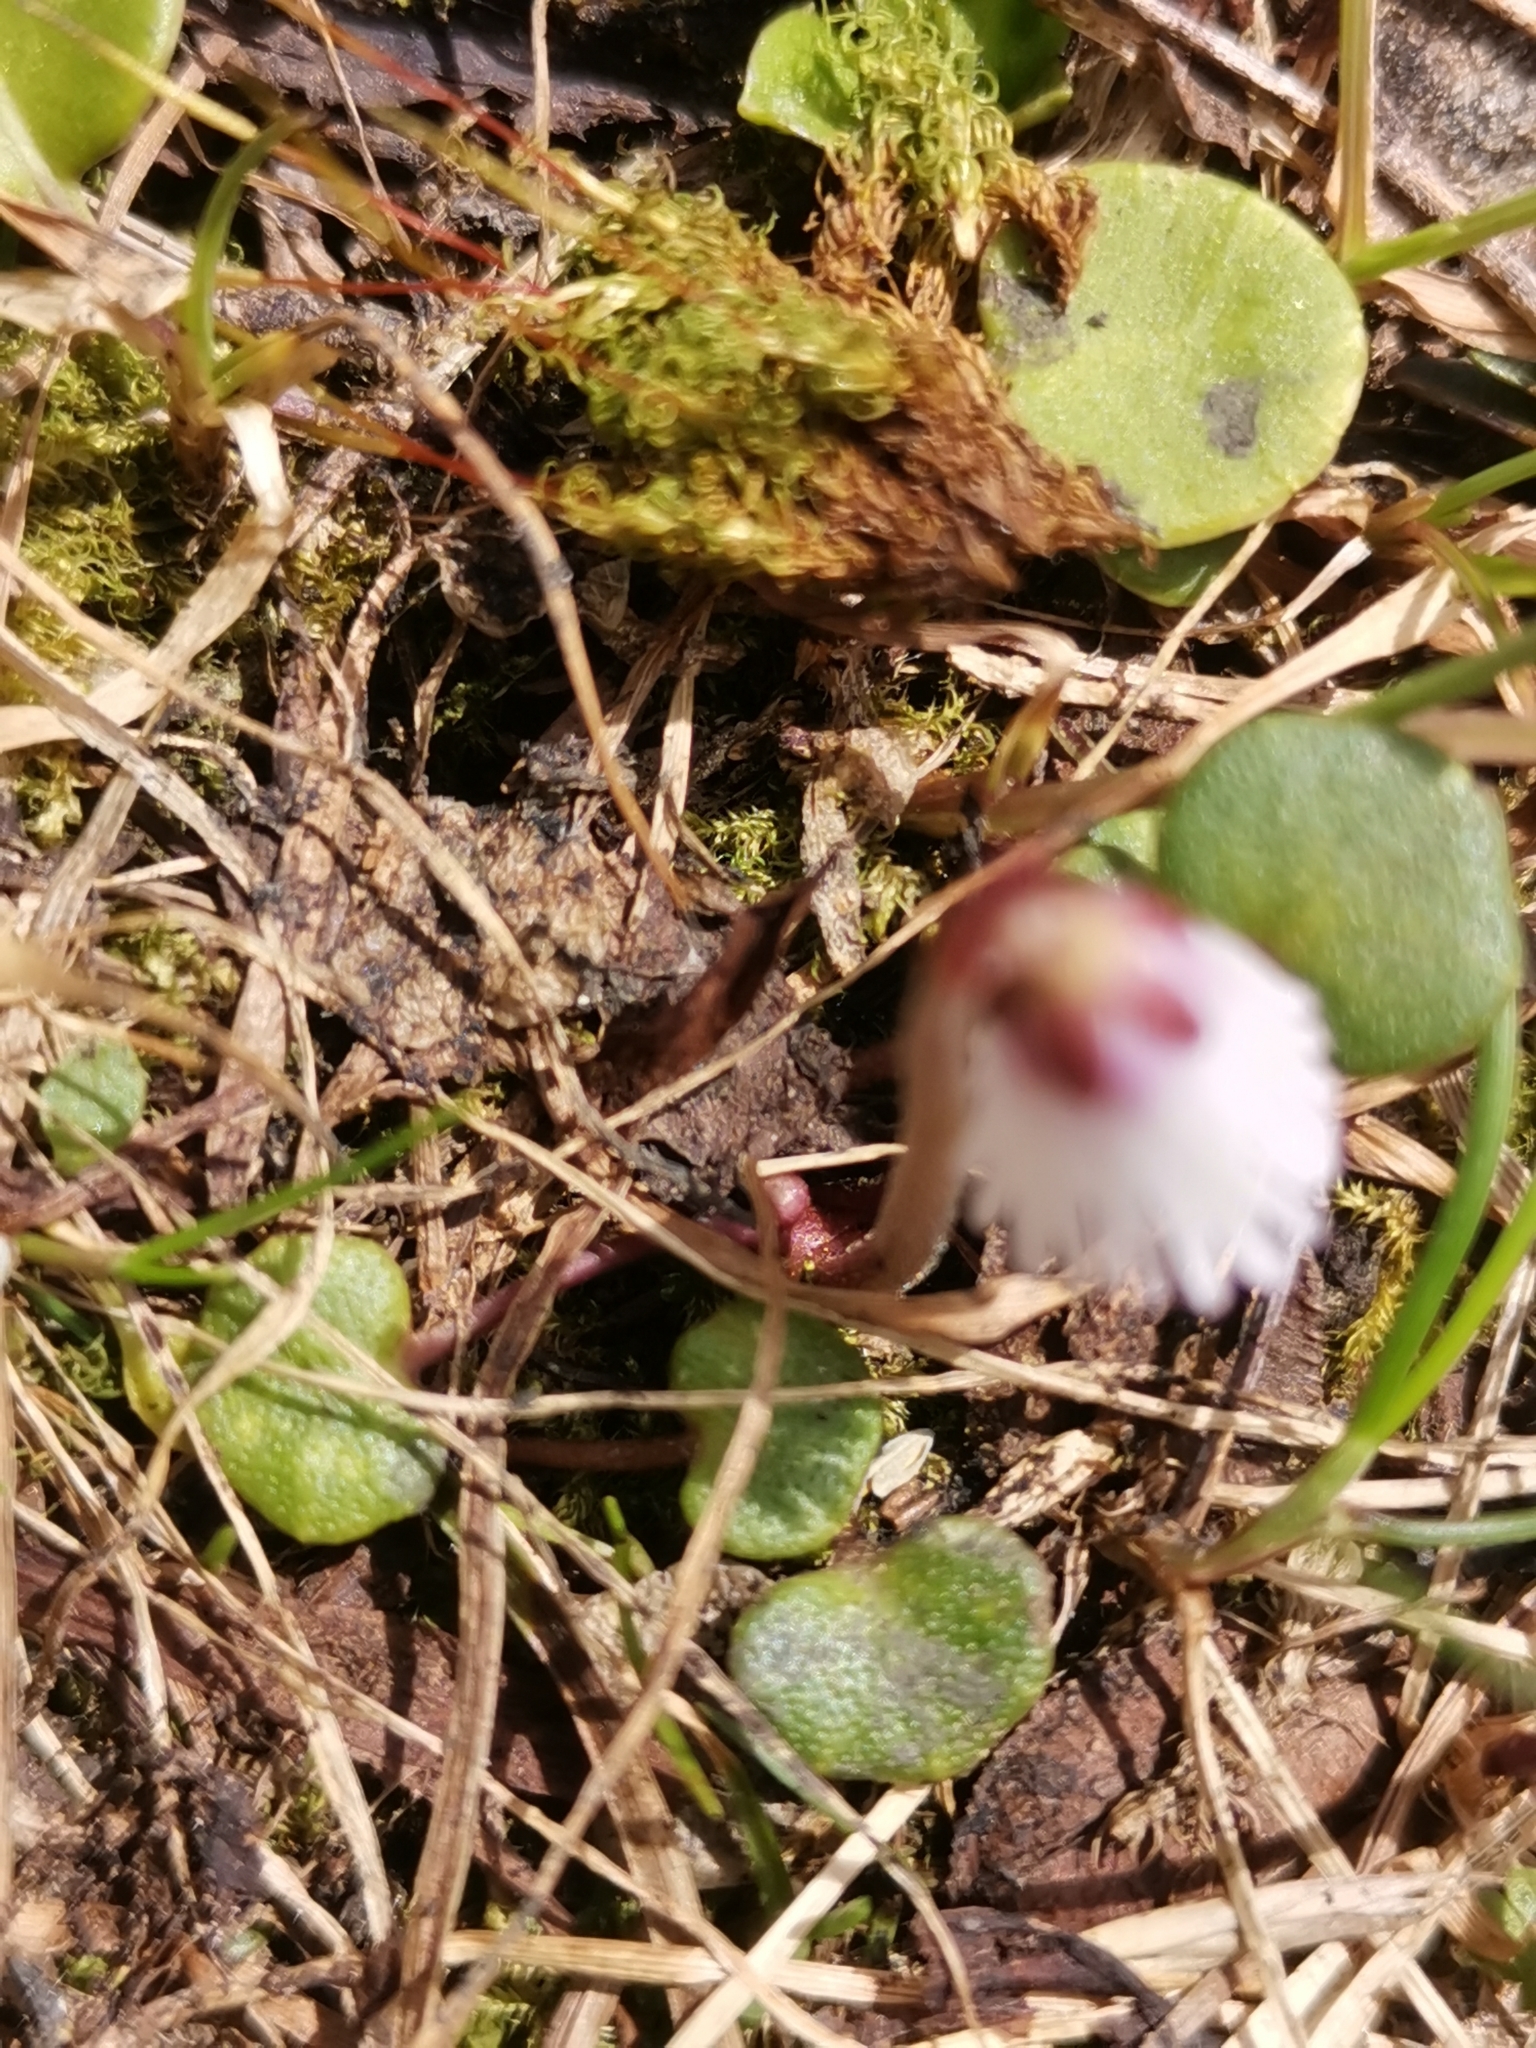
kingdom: Plantae
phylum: Tracheophyta
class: Magnoliopsida
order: Ericales
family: Primulaceae
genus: Soldanella
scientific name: Soldanella minima
